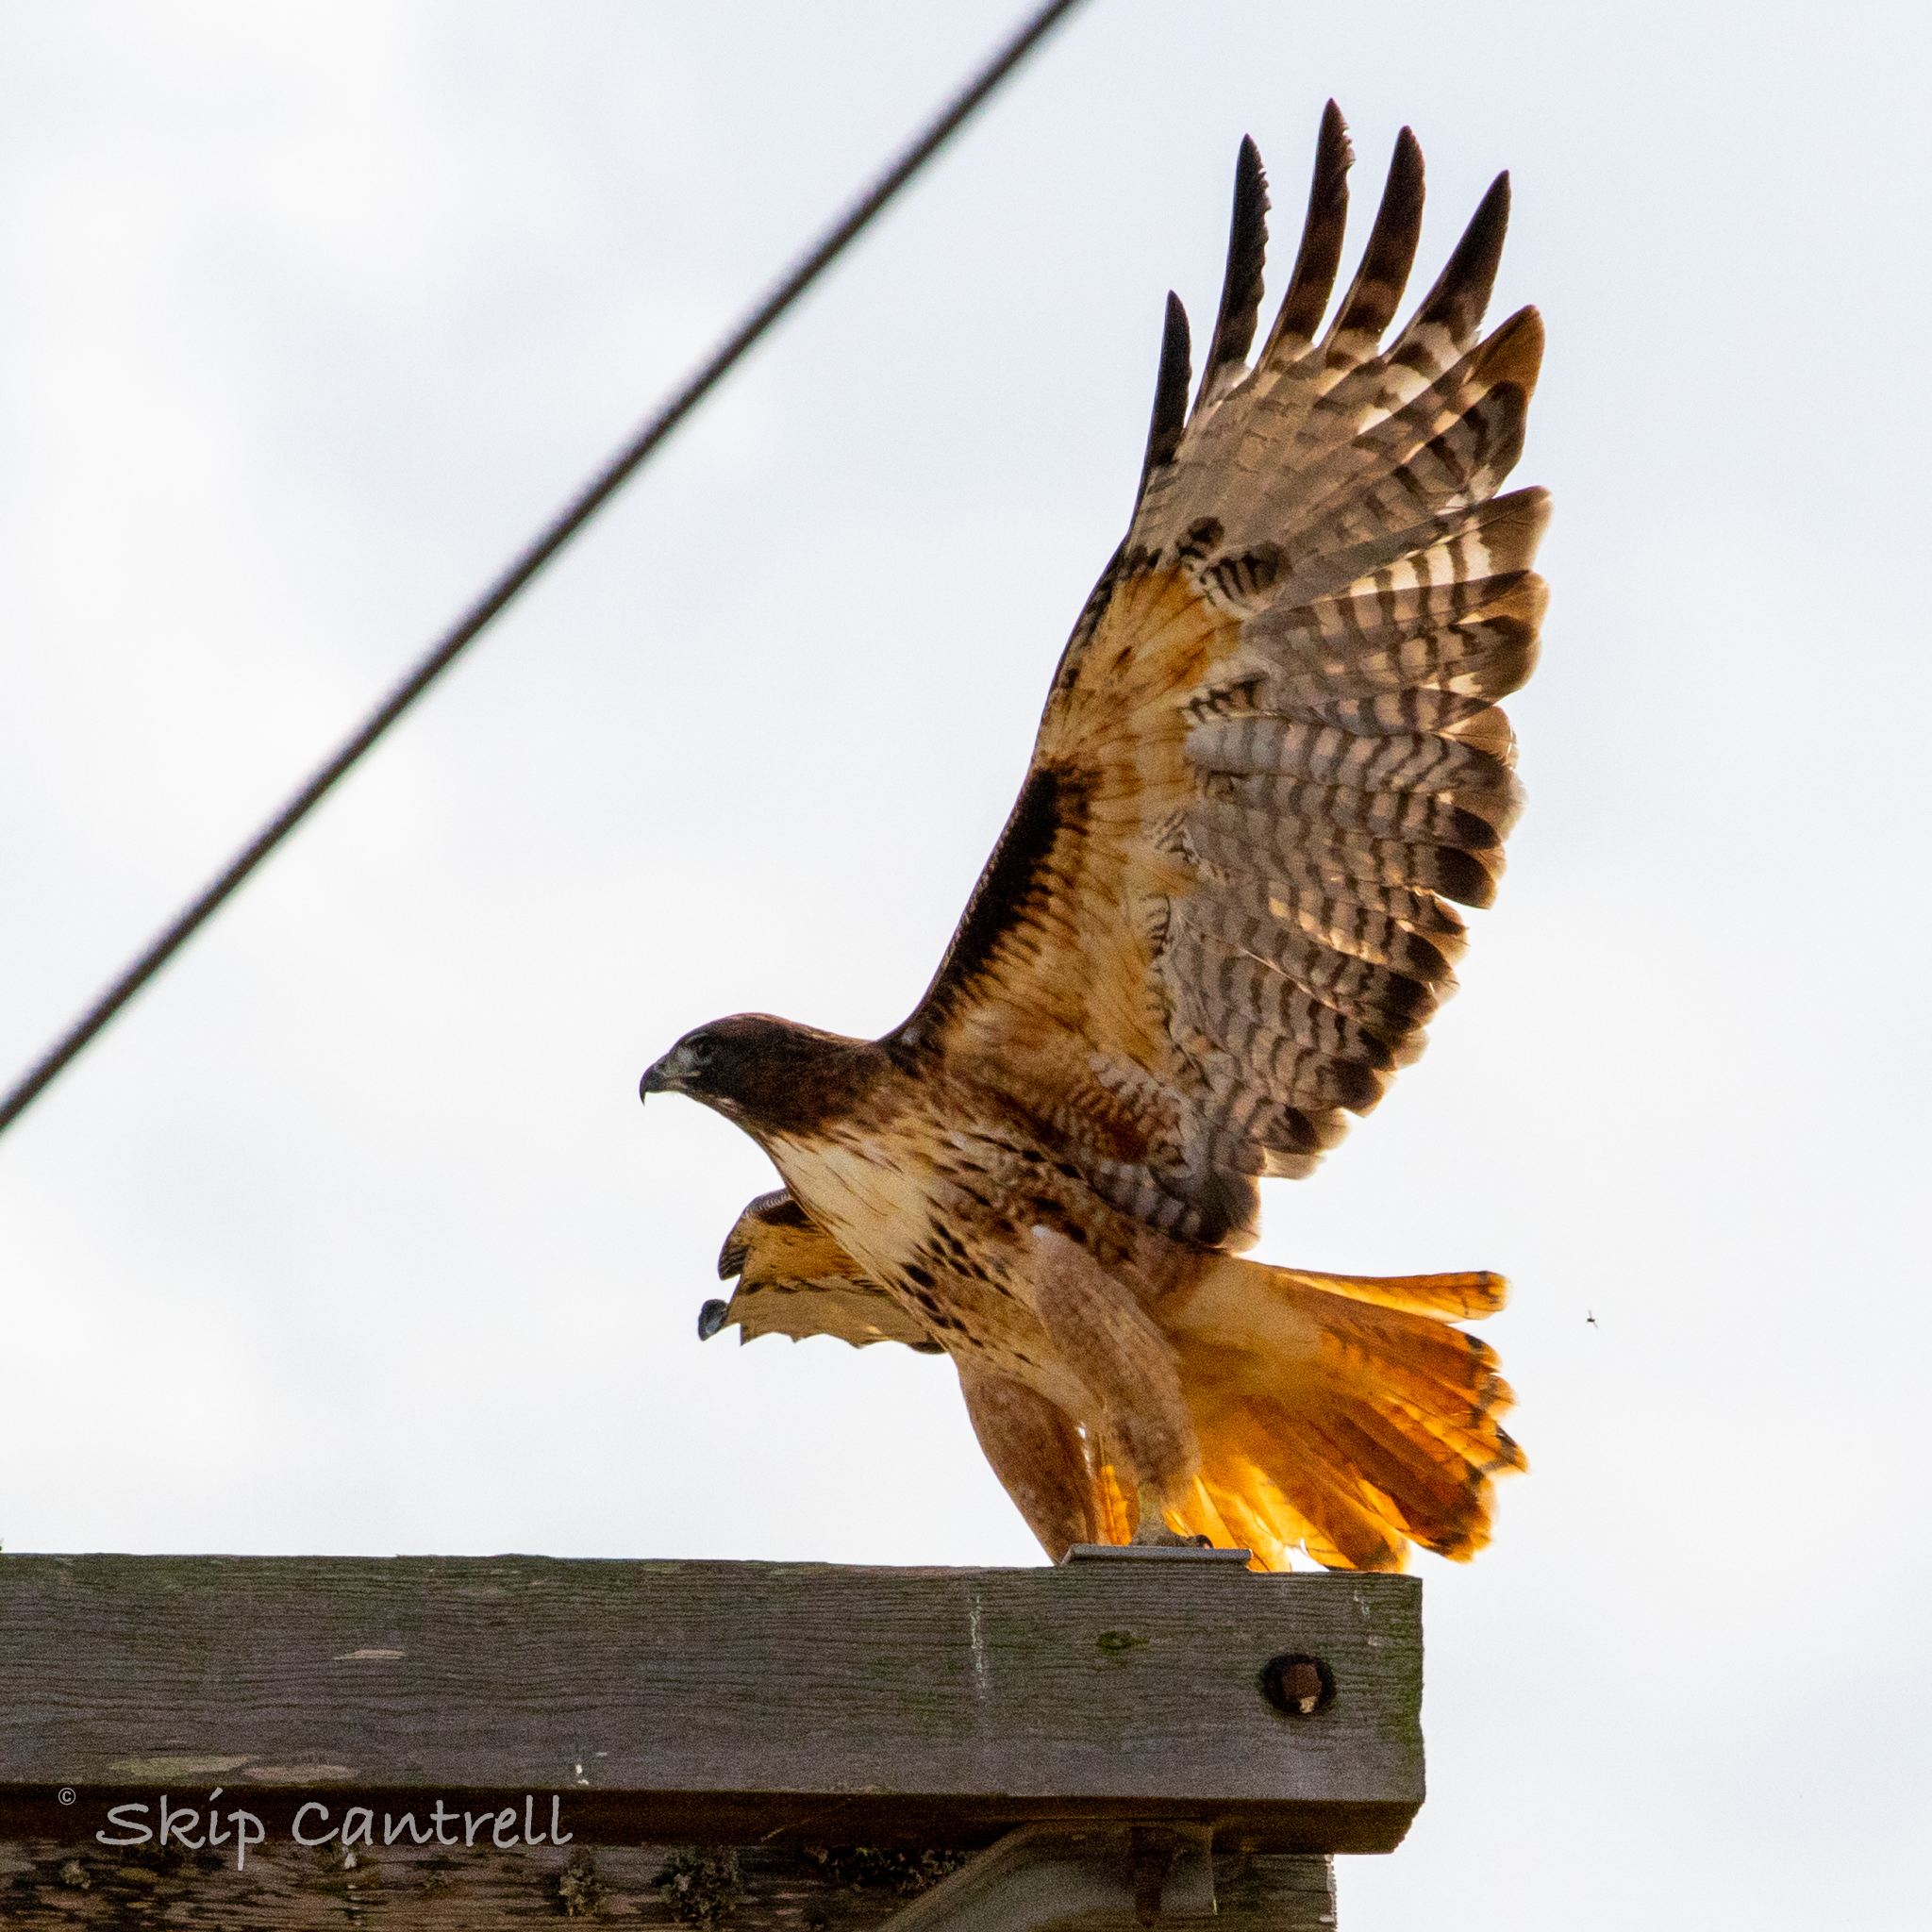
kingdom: Animalia
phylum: Chordata
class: Aves
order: Accipitriformes
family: Accipitridae
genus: Buteo
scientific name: Buteo jamaicensis
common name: Red-tailed hawk
